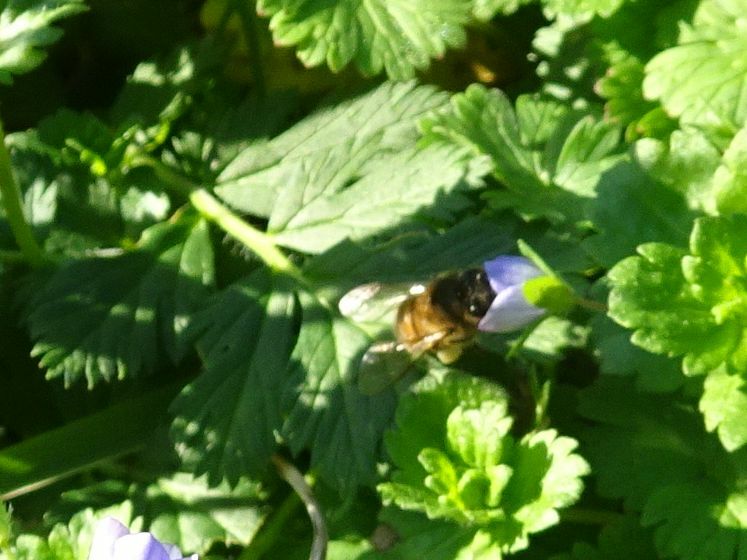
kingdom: Animalia
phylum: Arthropoda
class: Insecta
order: Hymenoptera
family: Apidae
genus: Apis
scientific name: Apis mellifera
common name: Honey bee
